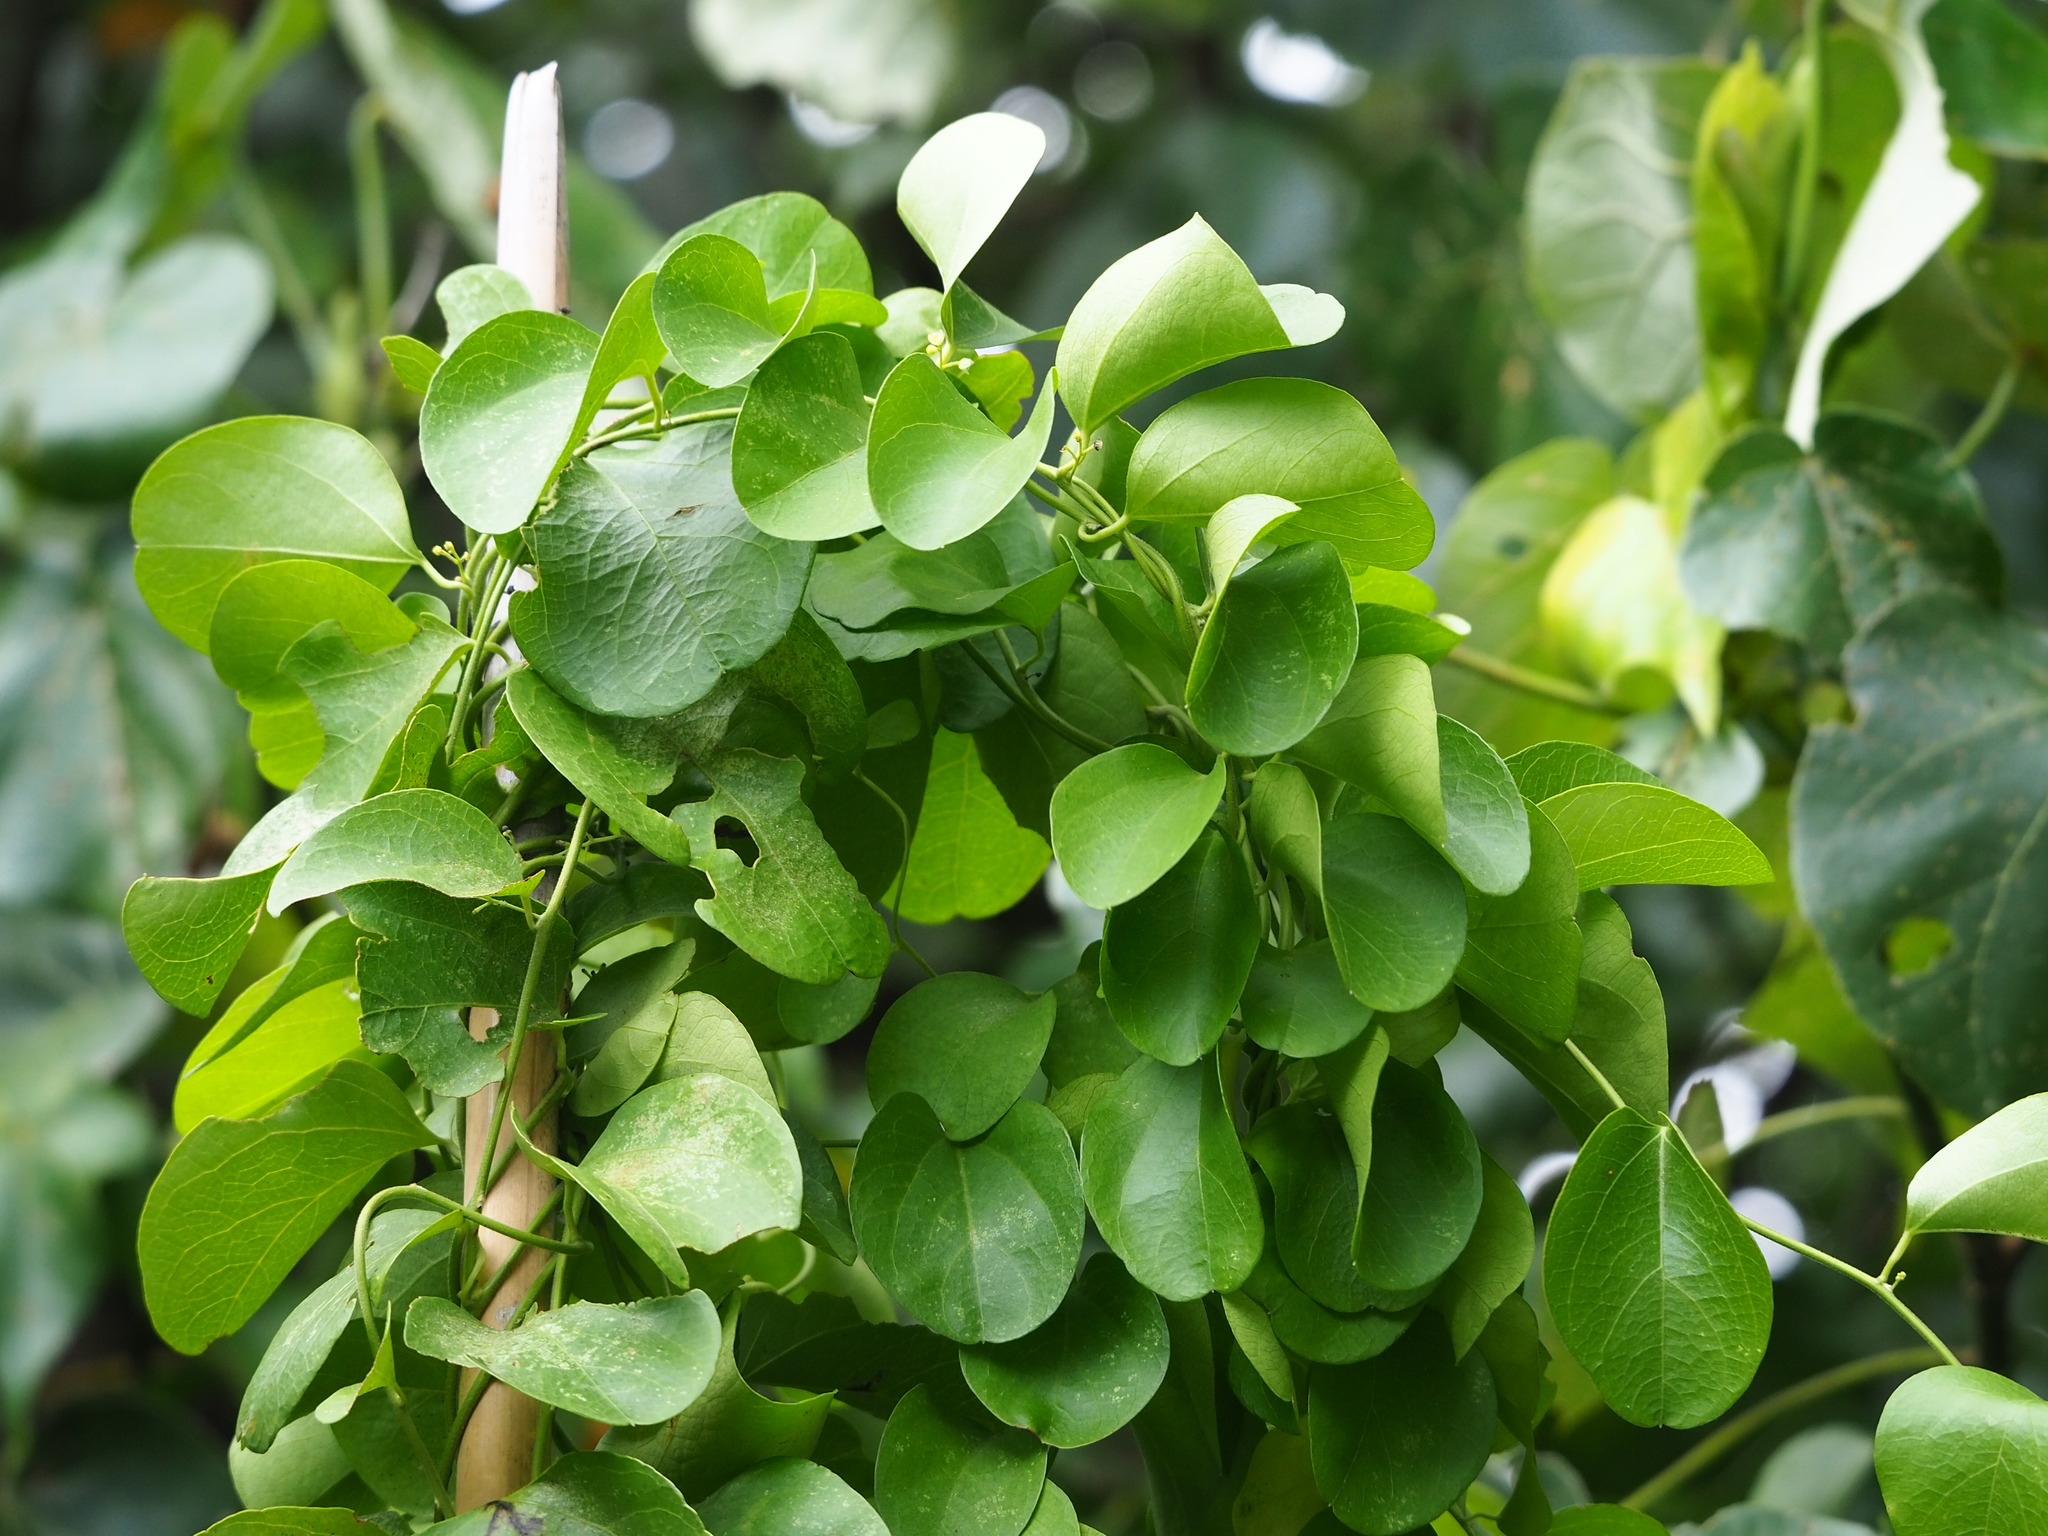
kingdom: Plantae
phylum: Tracheophyta
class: Magnoliopsida
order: Ranunculales
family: Menispermaceae
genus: Cocculus
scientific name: Cocculus orbiculatus
